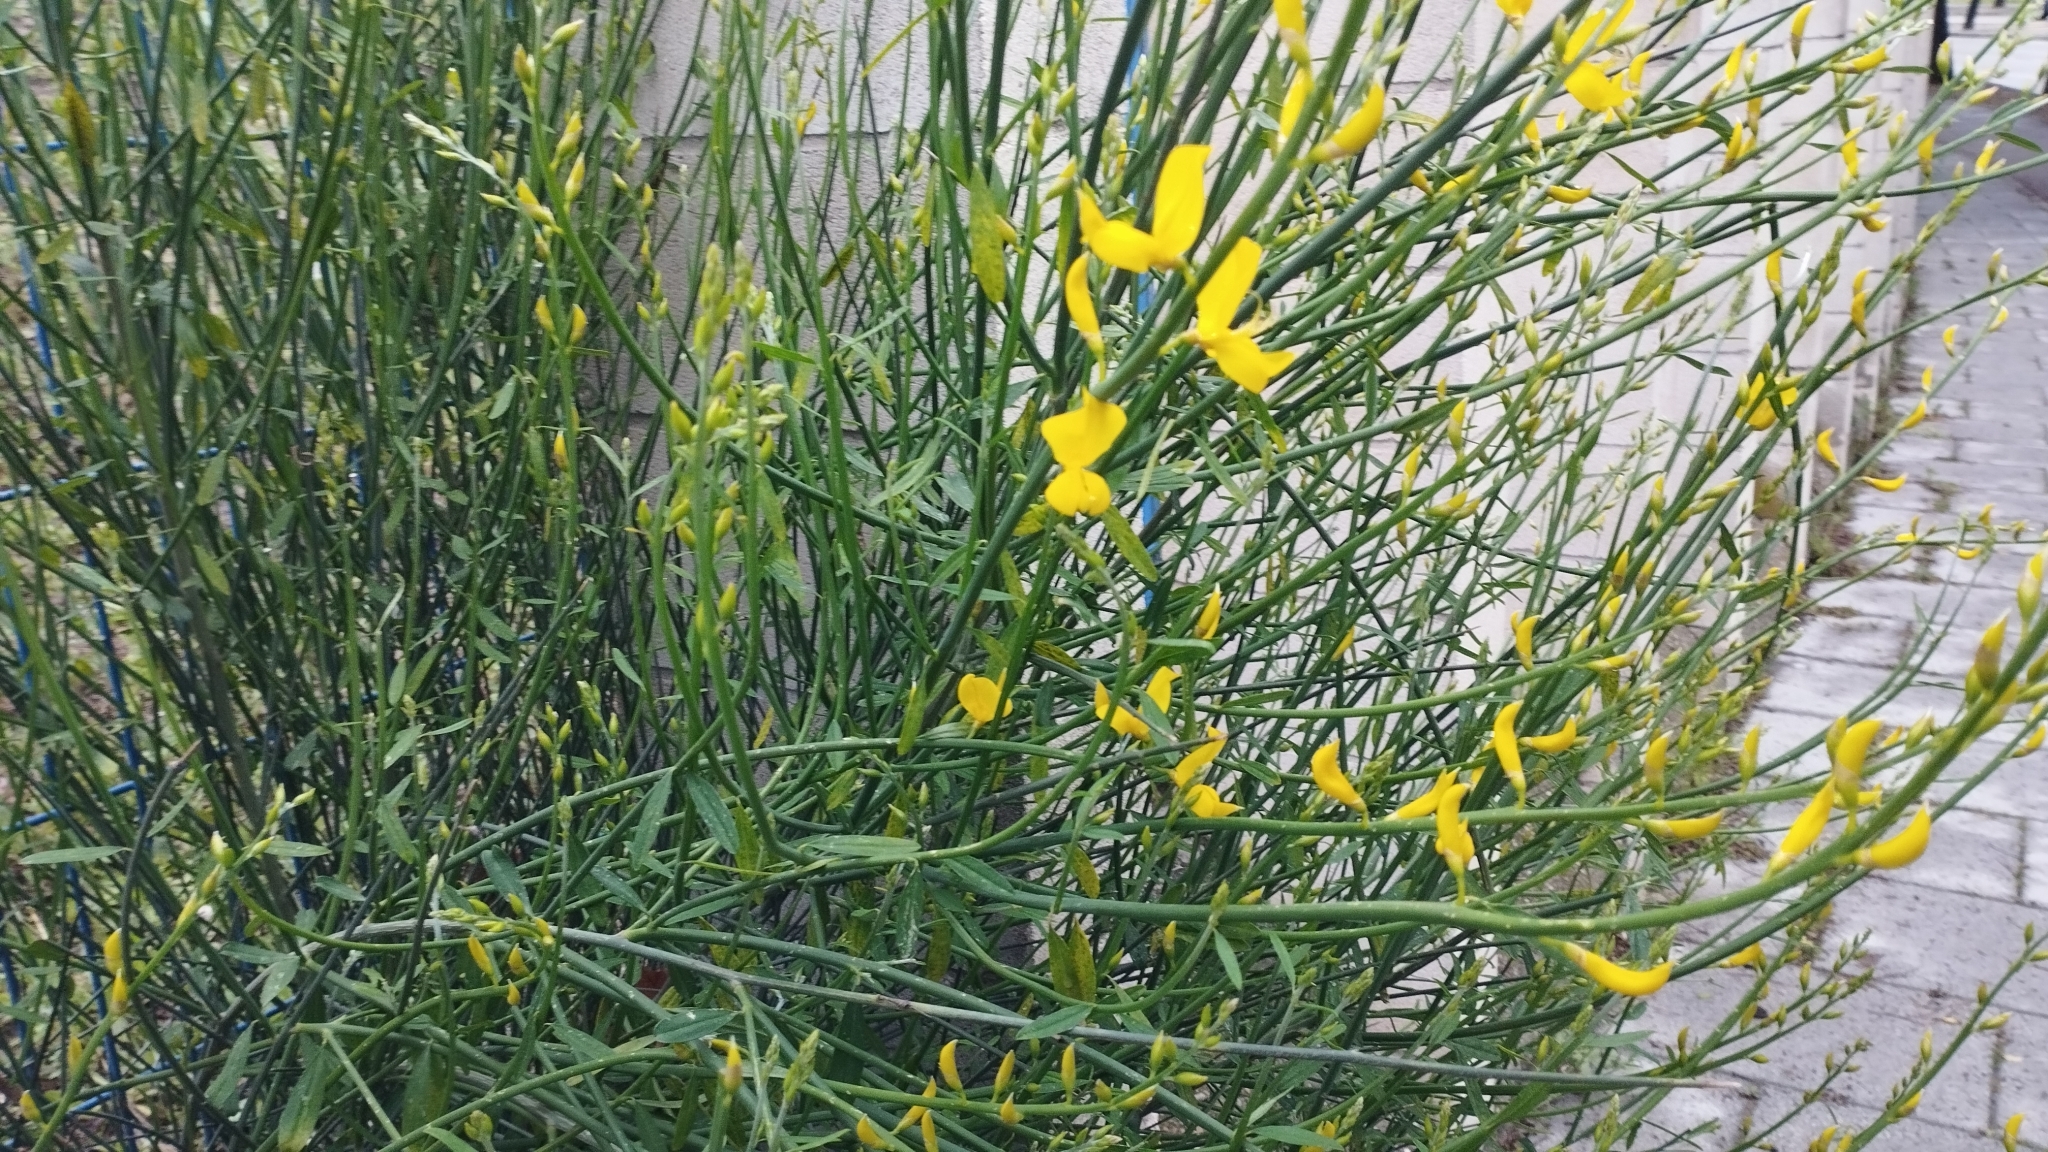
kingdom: Plantae
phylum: Tracheophyta
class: Magnoliopsida
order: Fabales
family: Fabaceae
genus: Spartium
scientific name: Spartium junceum
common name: Spanish broom
